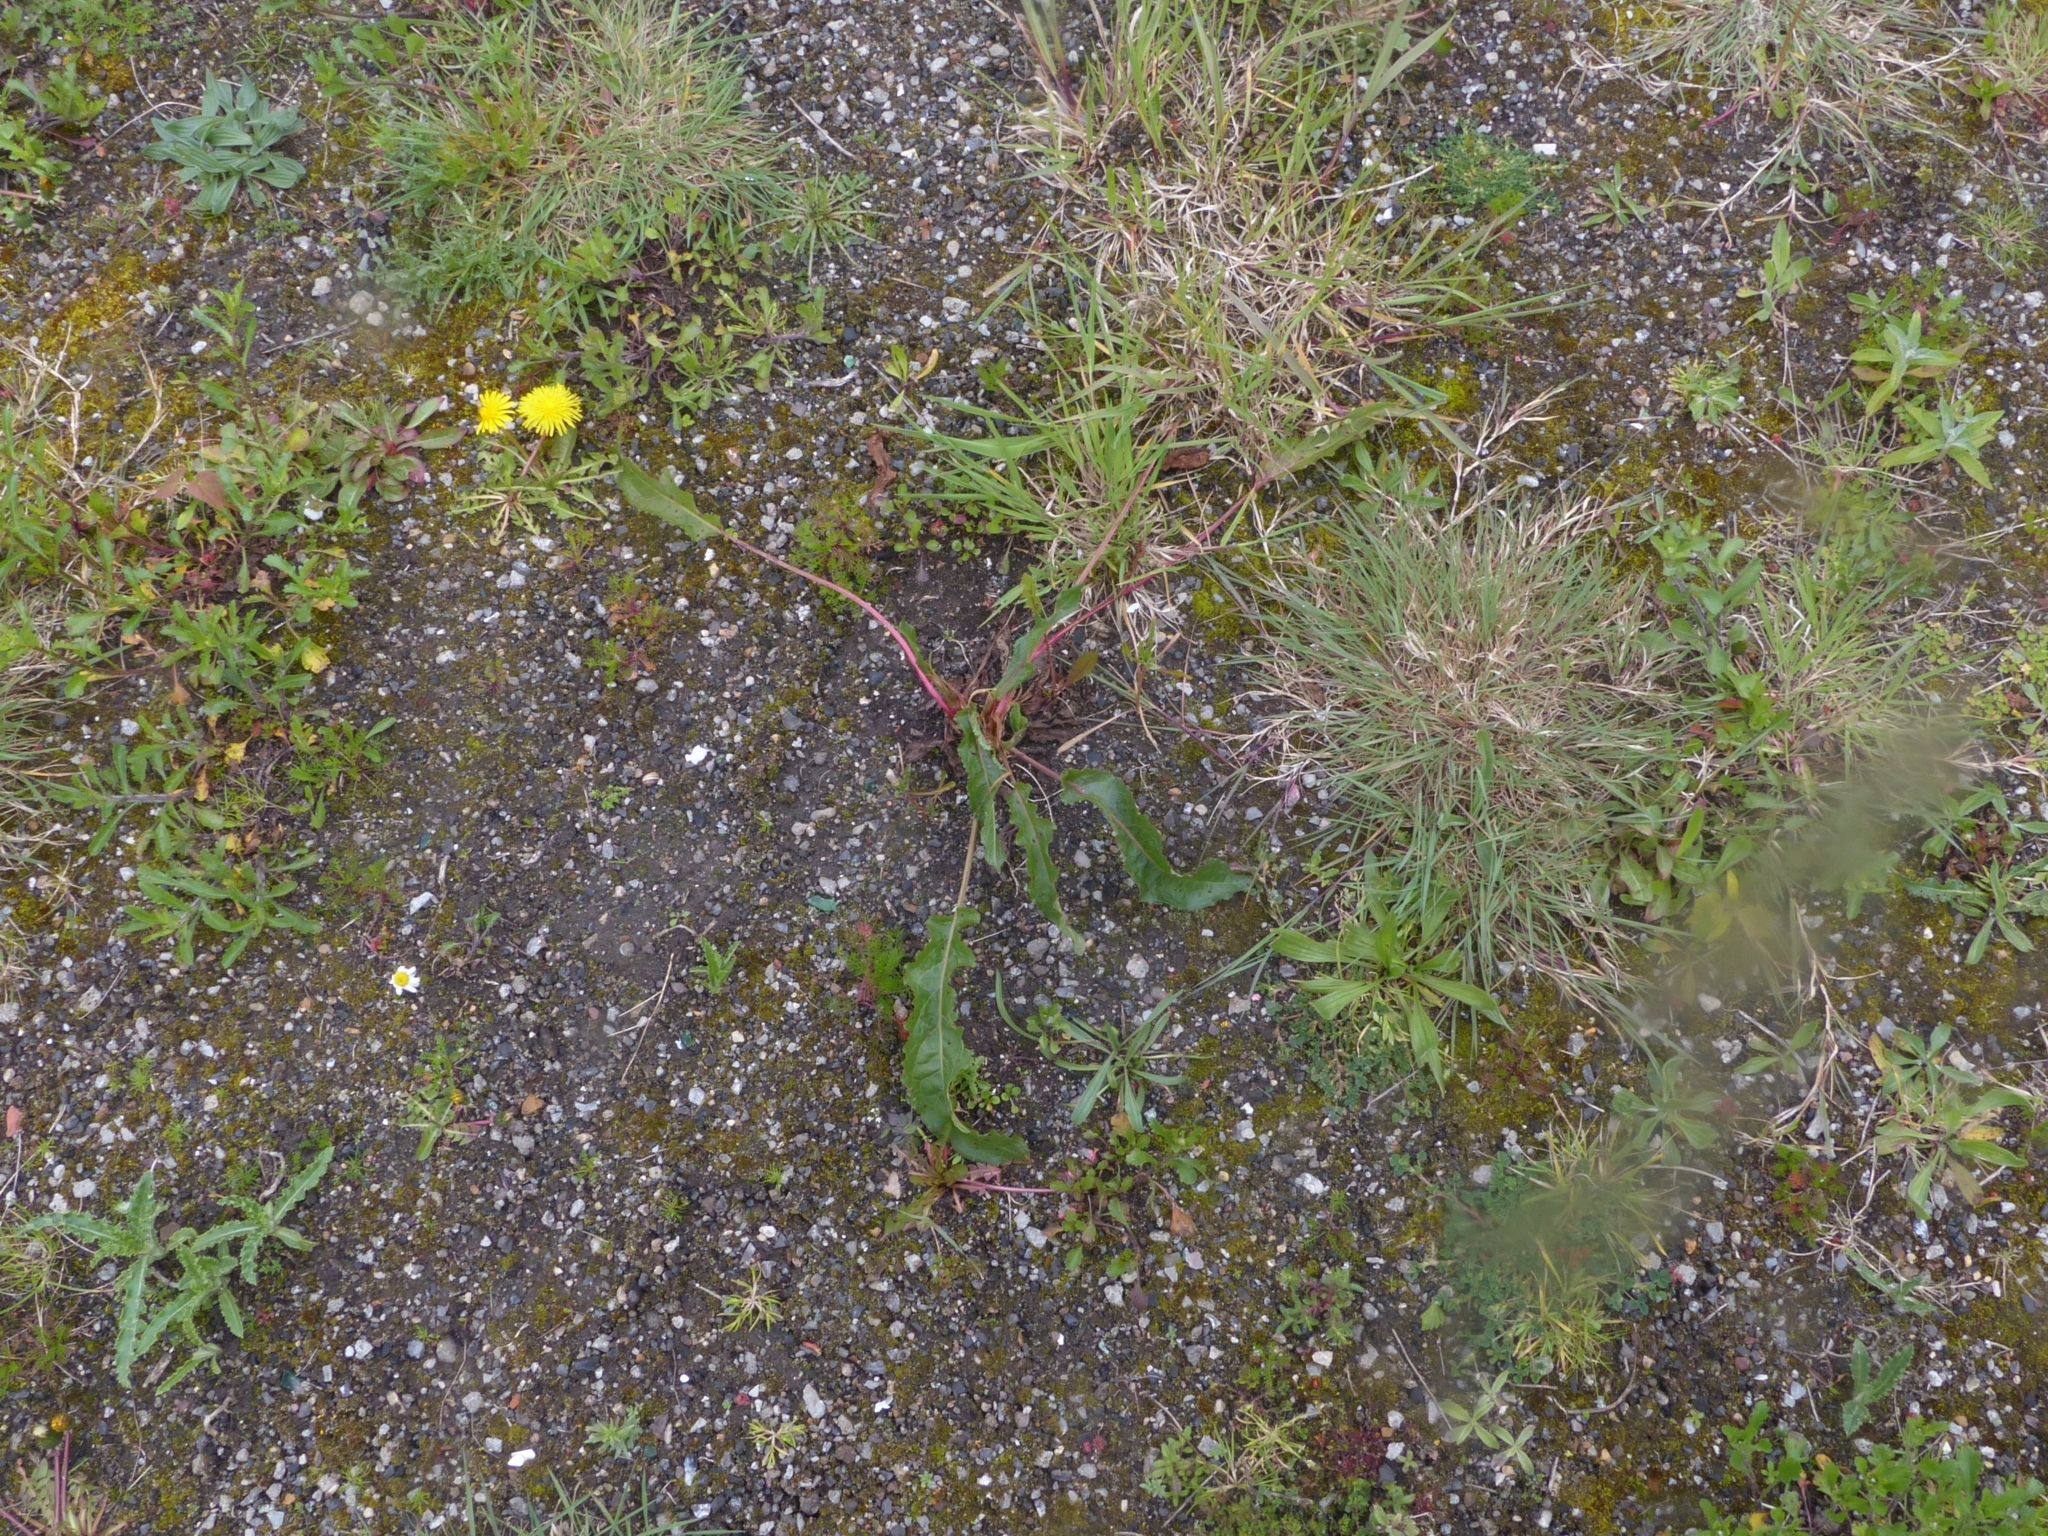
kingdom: Plantae
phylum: Tracheophyta
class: Magnoliopsida
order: Caryophyllales
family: Polygonaceae
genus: Rumex
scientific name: Rumex crispus
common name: Curled dock
